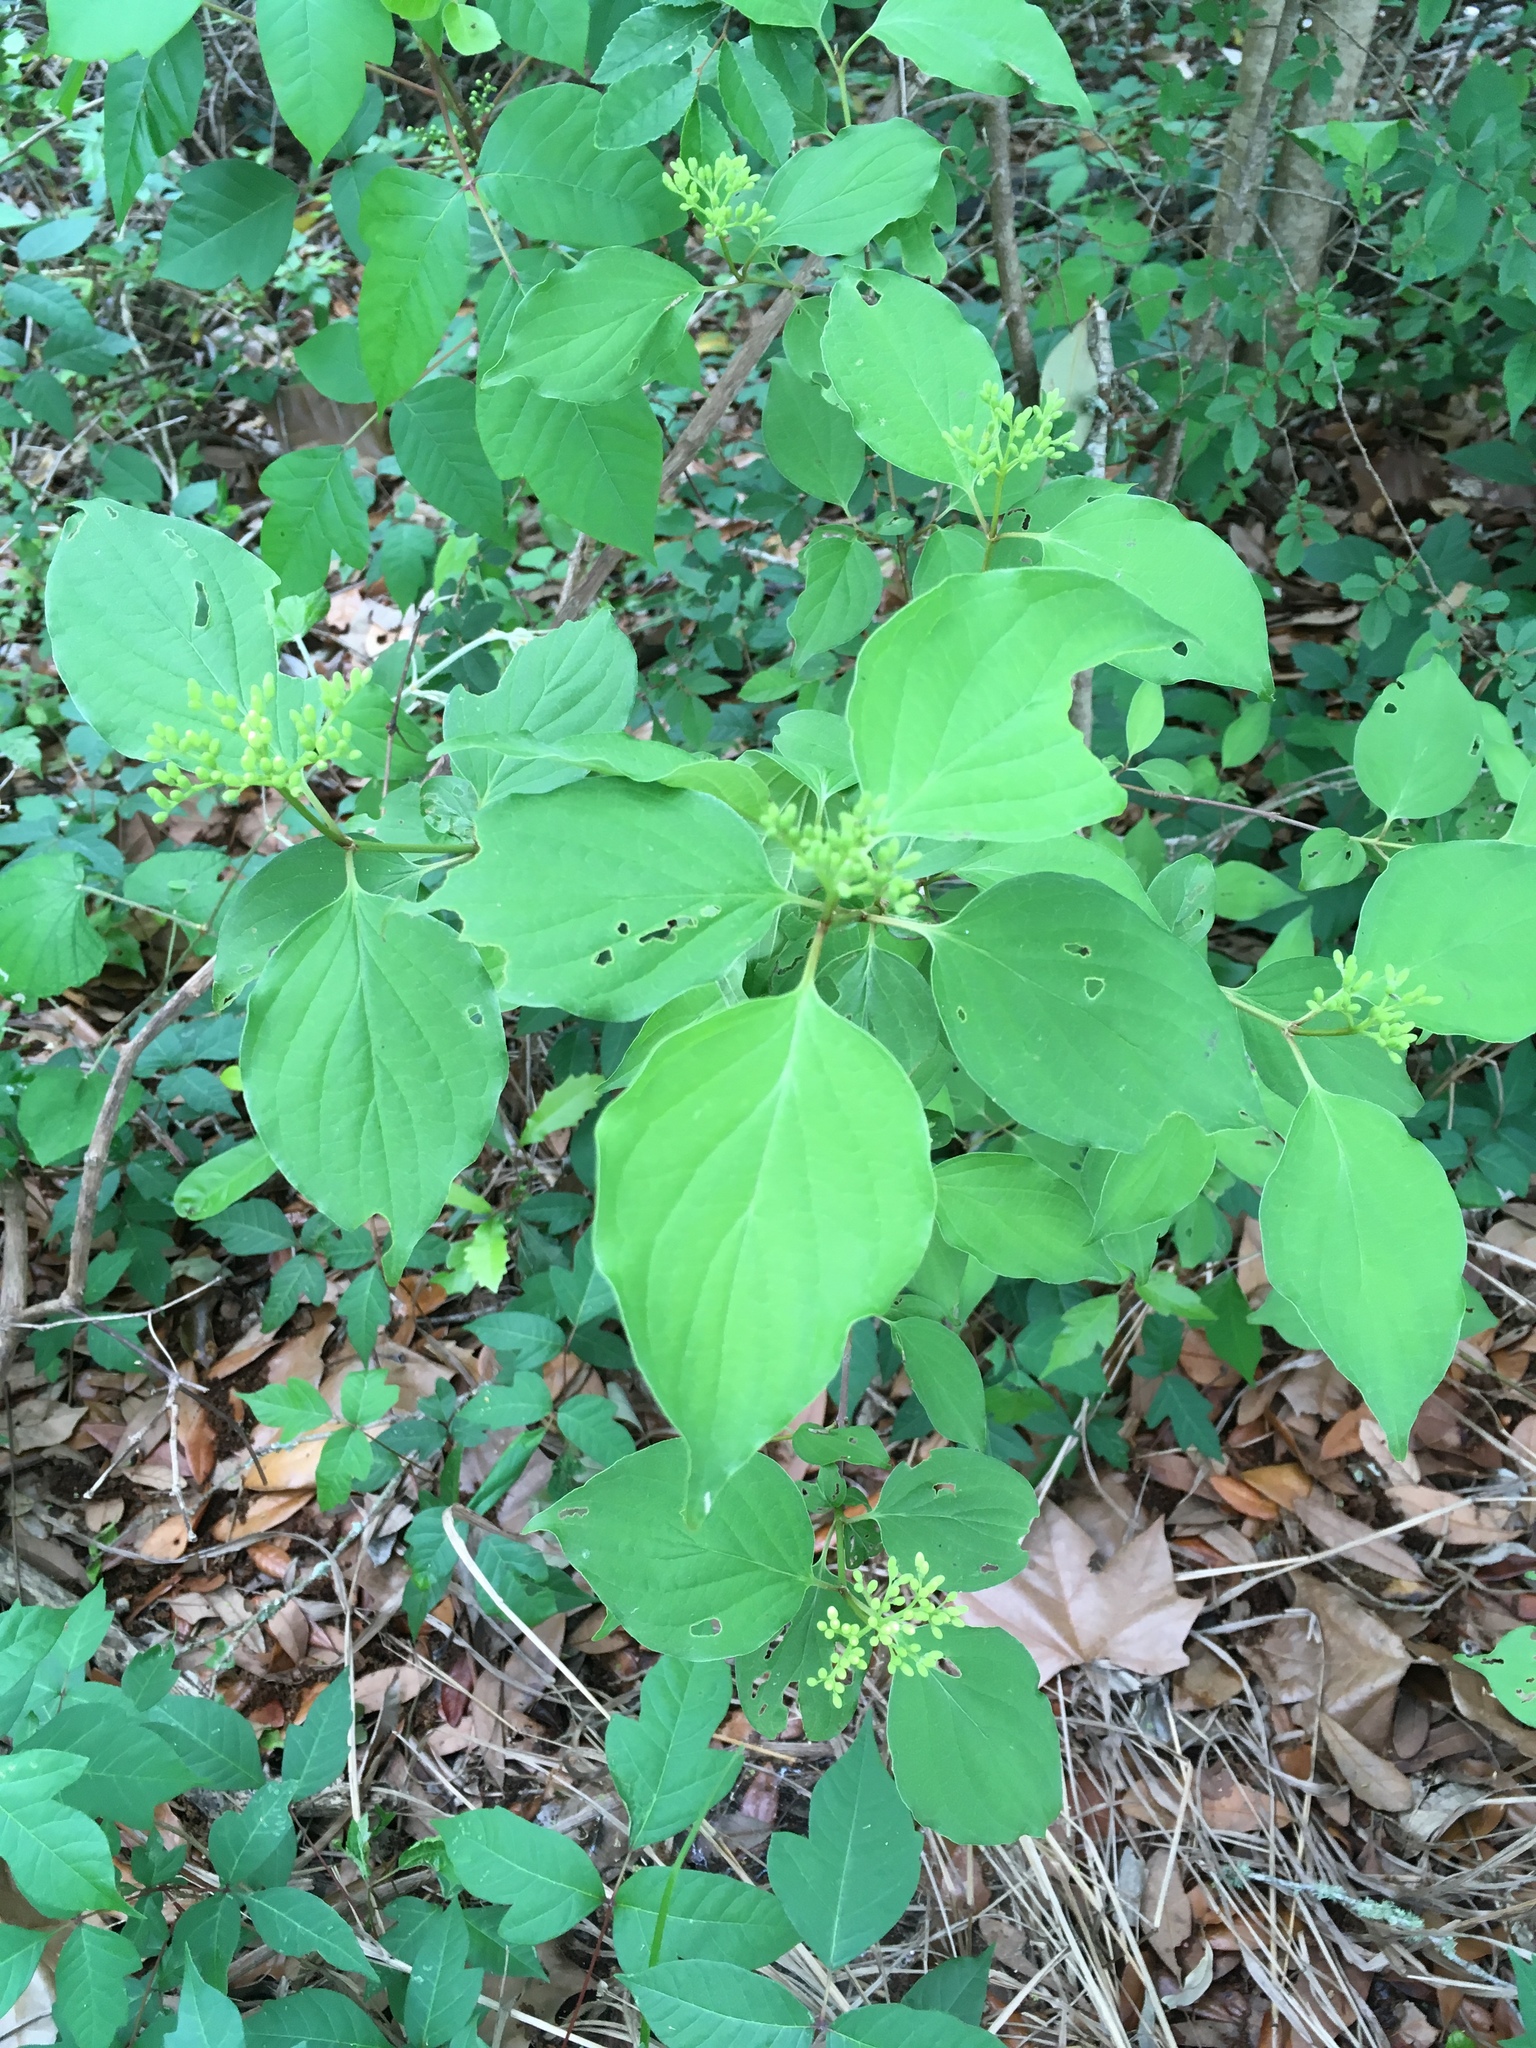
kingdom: Plantae
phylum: Tracheophyta
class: Magnoliopsida
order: Cornales
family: Cornaceae
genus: Cornus
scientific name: Cornus drummondii
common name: Rough-leaf dogwood
